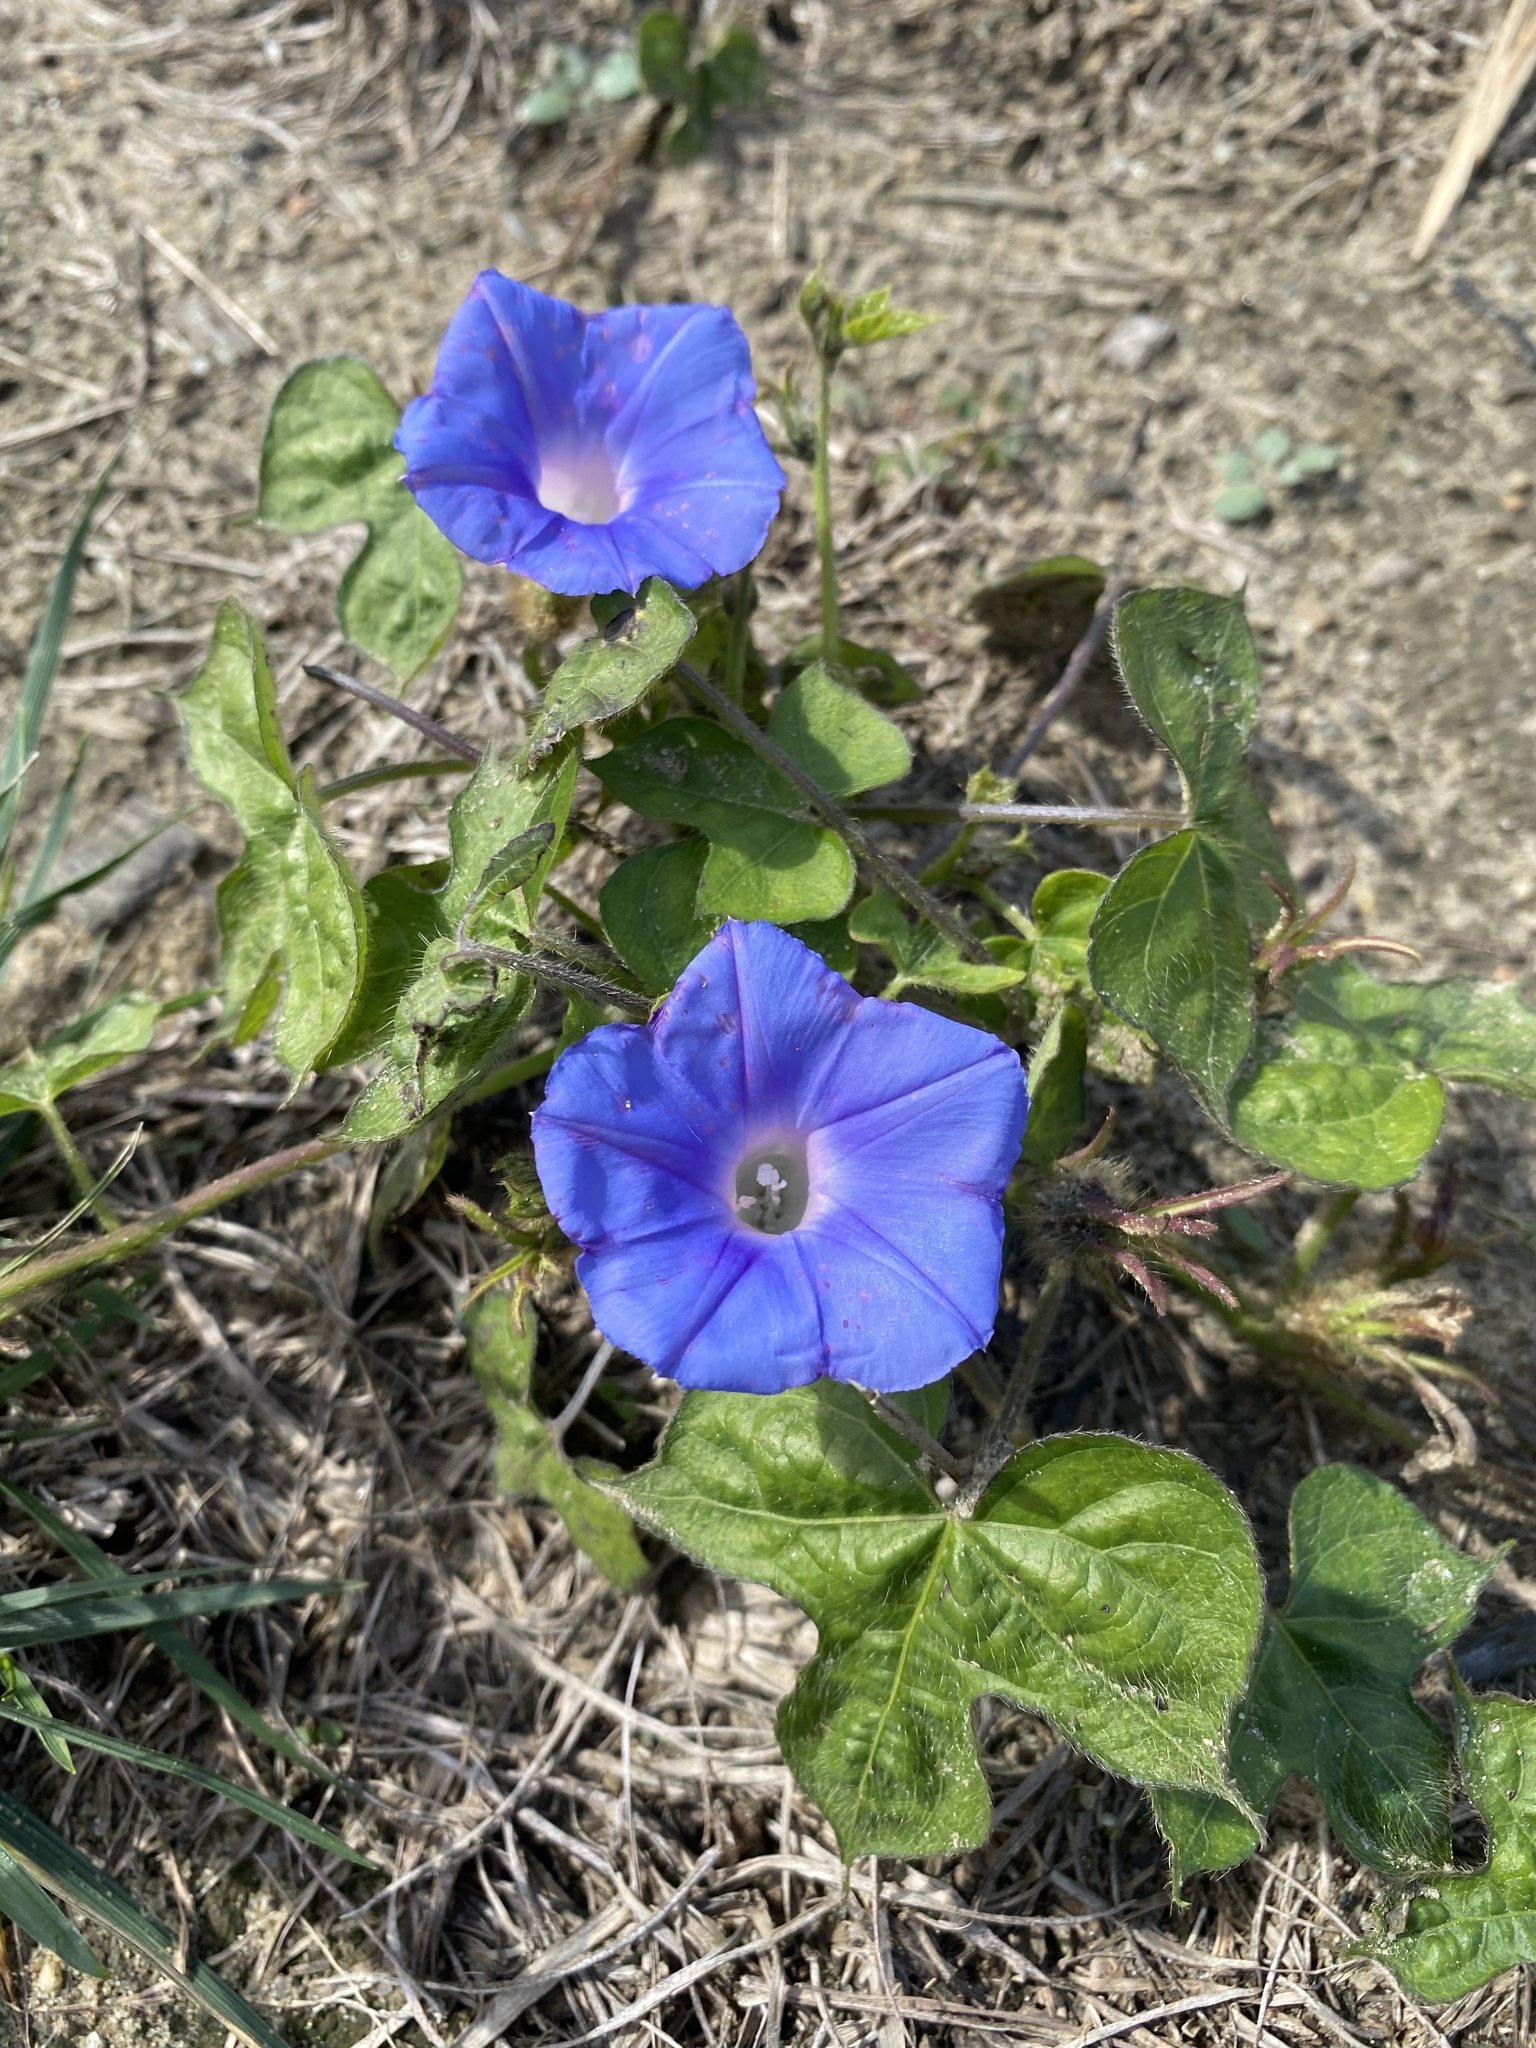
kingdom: Plantae
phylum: Tracheophyta
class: Magnoliopsida
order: Solanales
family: Convolvulaceae
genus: Ipomoea
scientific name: Ipomoea hederacea
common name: Ivy-leaved morning-glory
